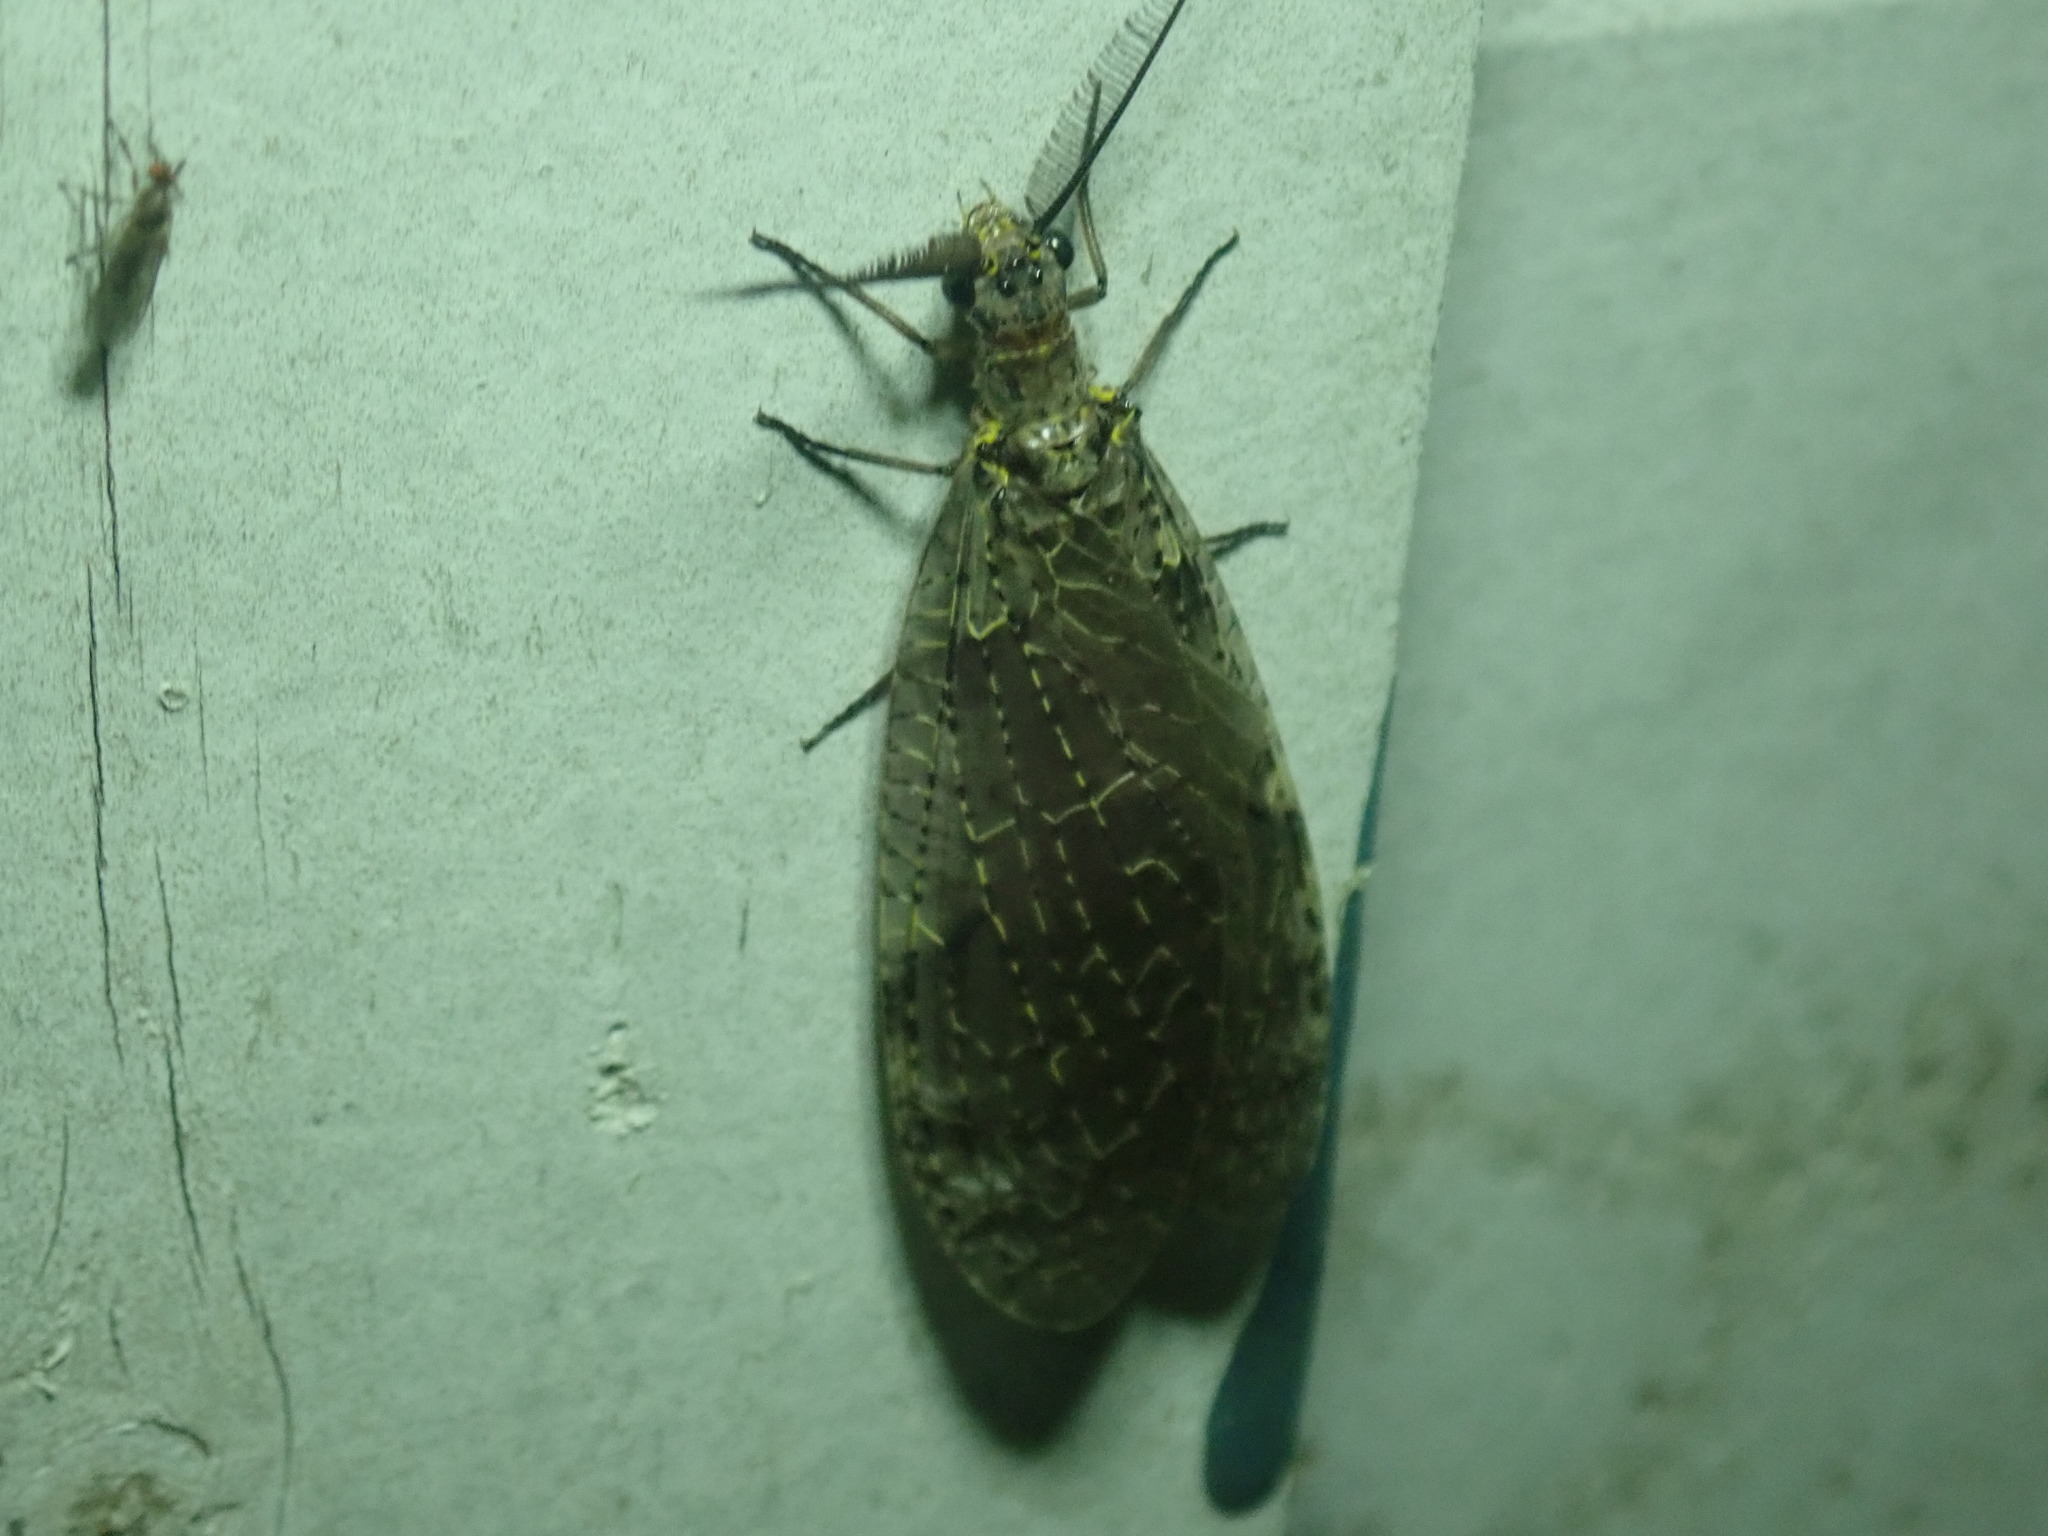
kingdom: Animalia
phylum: Arthropoda
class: Insecta
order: Megaloptera
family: Corydalidae
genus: Chauliodes
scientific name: Chauliodes rastricornis
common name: Spring fishfly
